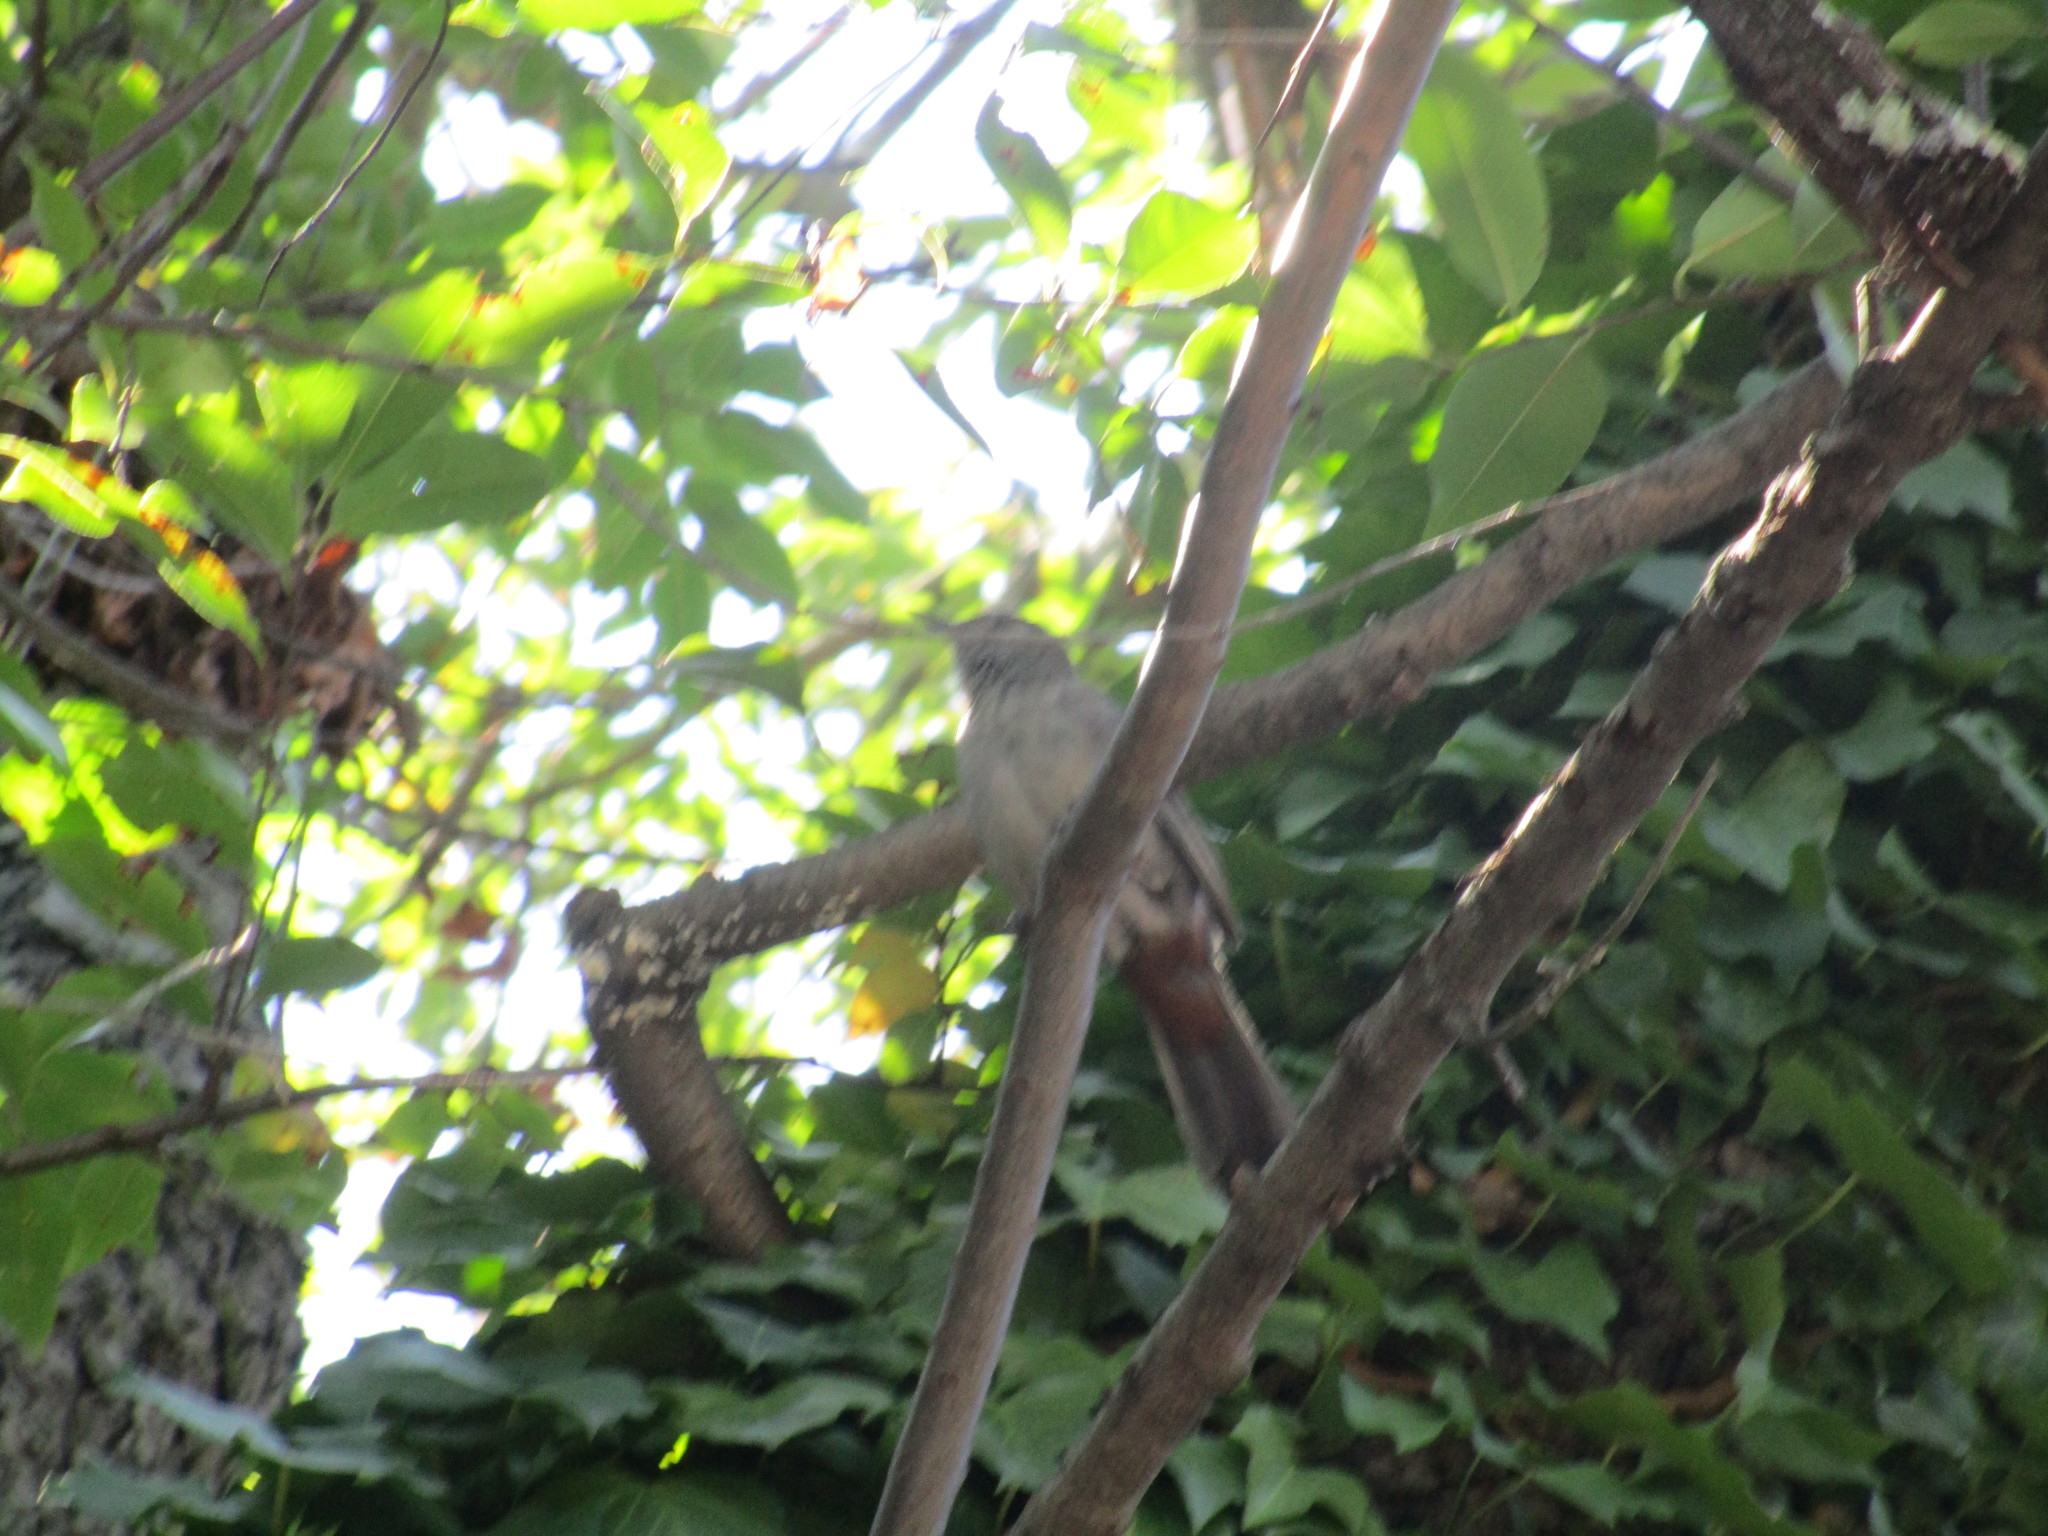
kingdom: Animalia
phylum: Chordata
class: Aves
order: Passeriformes
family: Mimidae
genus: Dumetella
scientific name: Dumetella carolinensis
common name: Gray catbird
